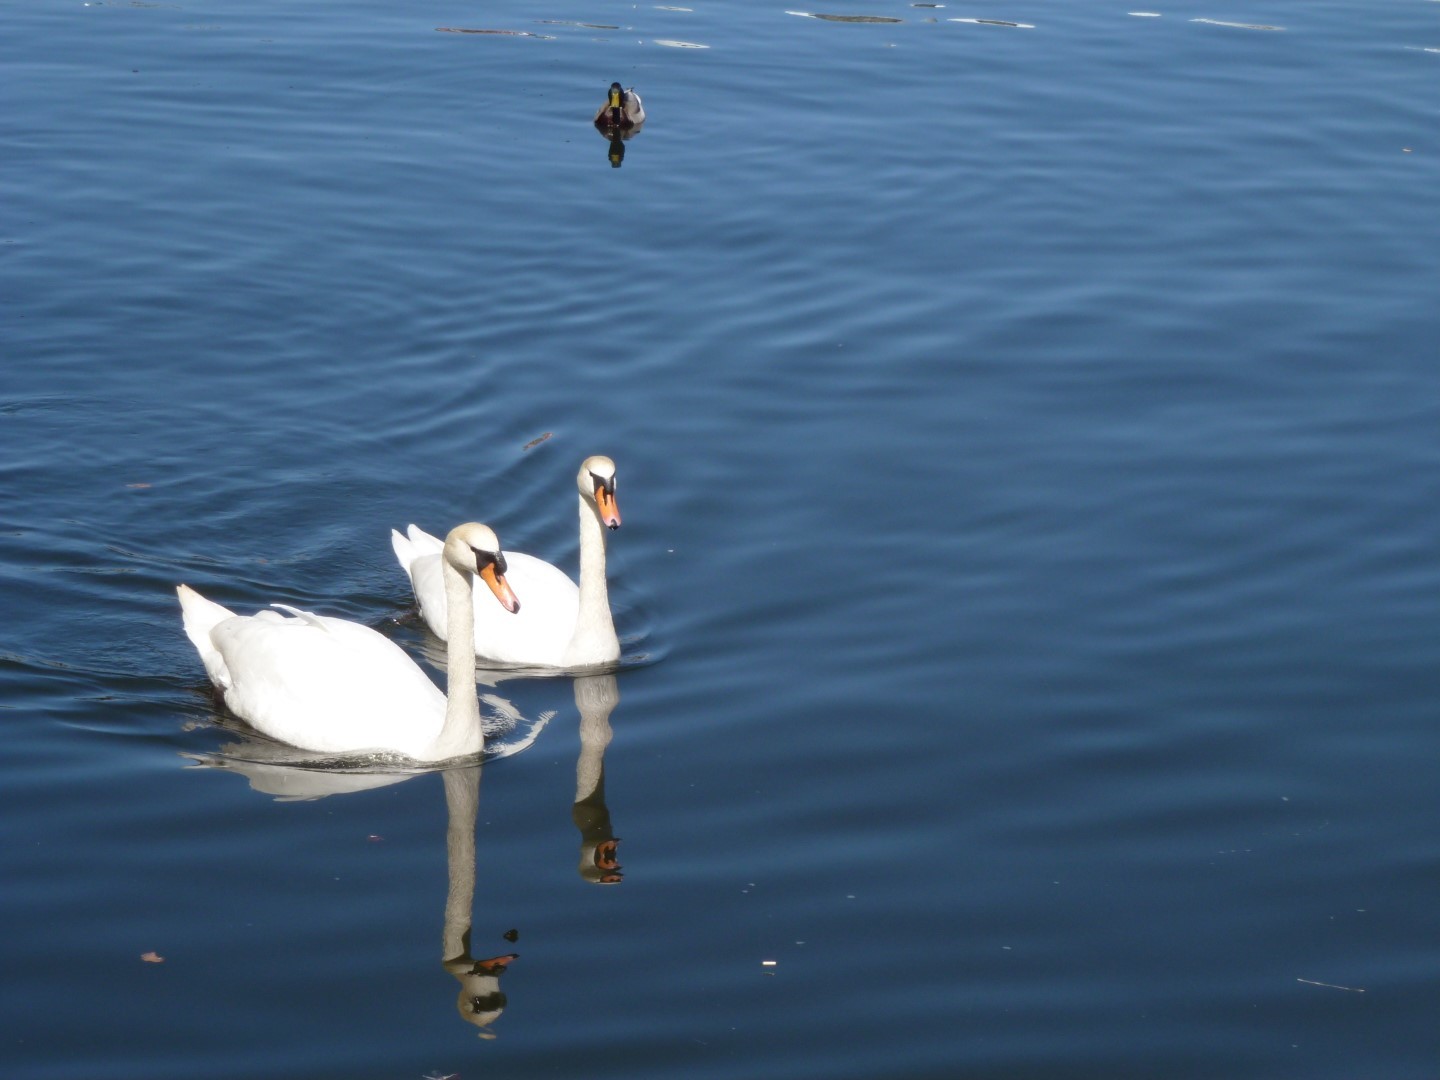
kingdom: Animalia
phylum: Chordata
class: Aves
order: Anseriformes
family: Anatidae
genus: Cygnus
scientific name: Cygnus olor
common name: Mute swan
